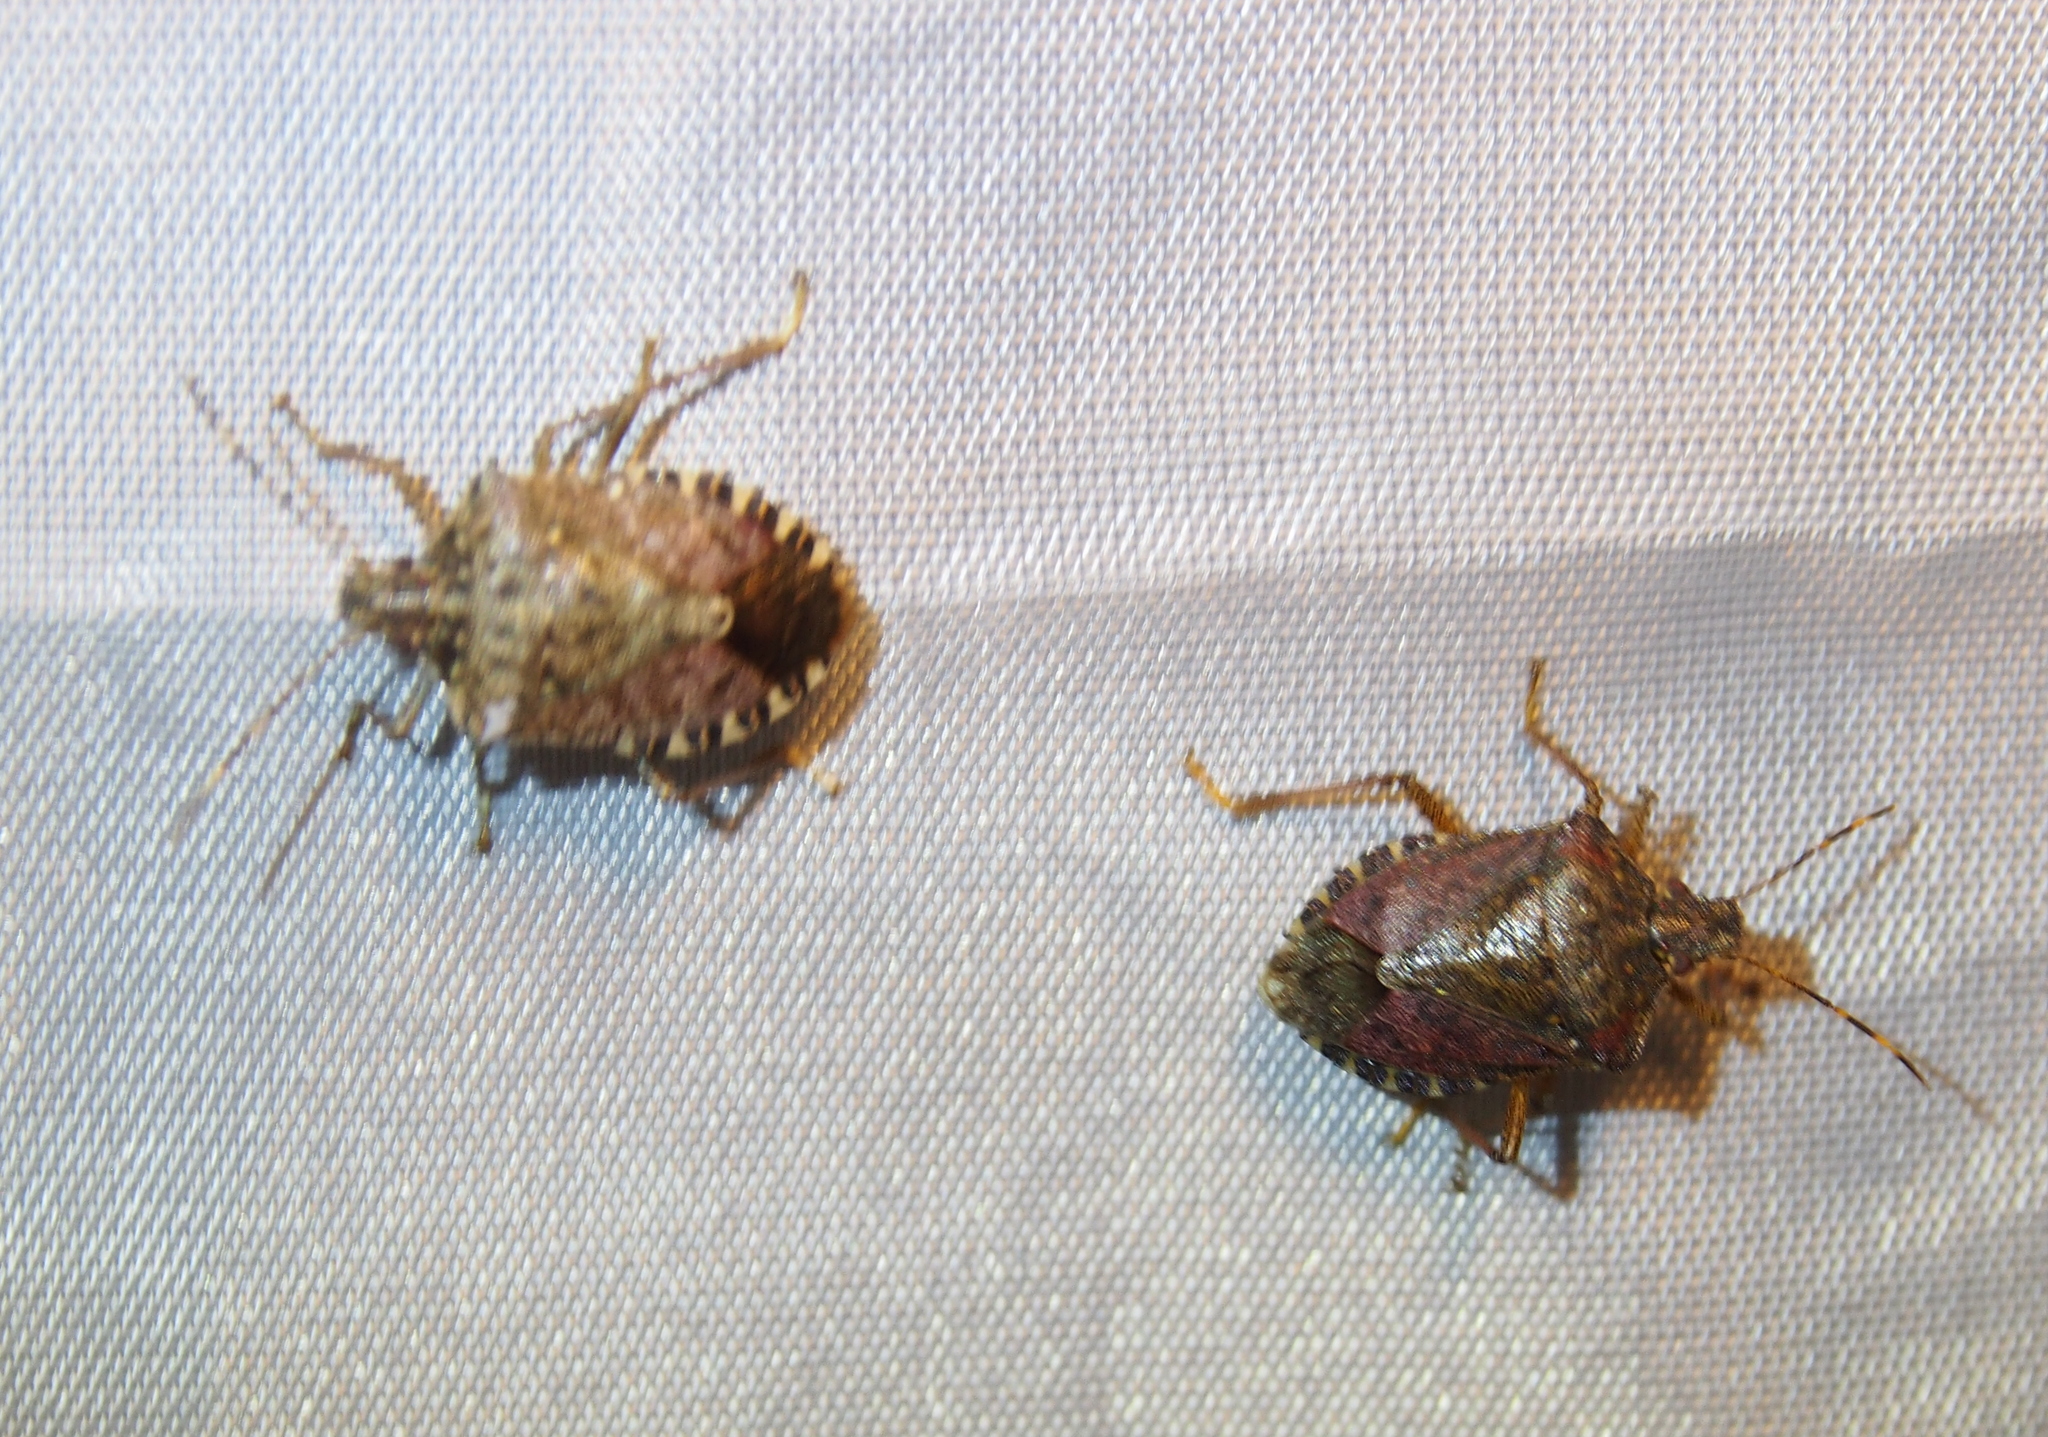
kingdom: Animalia
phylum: Arthropoda
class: Insecta
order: Hemiptera
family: Pentatomidae
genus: Halyomorpha
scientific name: Halyomorpha halys
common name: Brown marmorated stink bug
